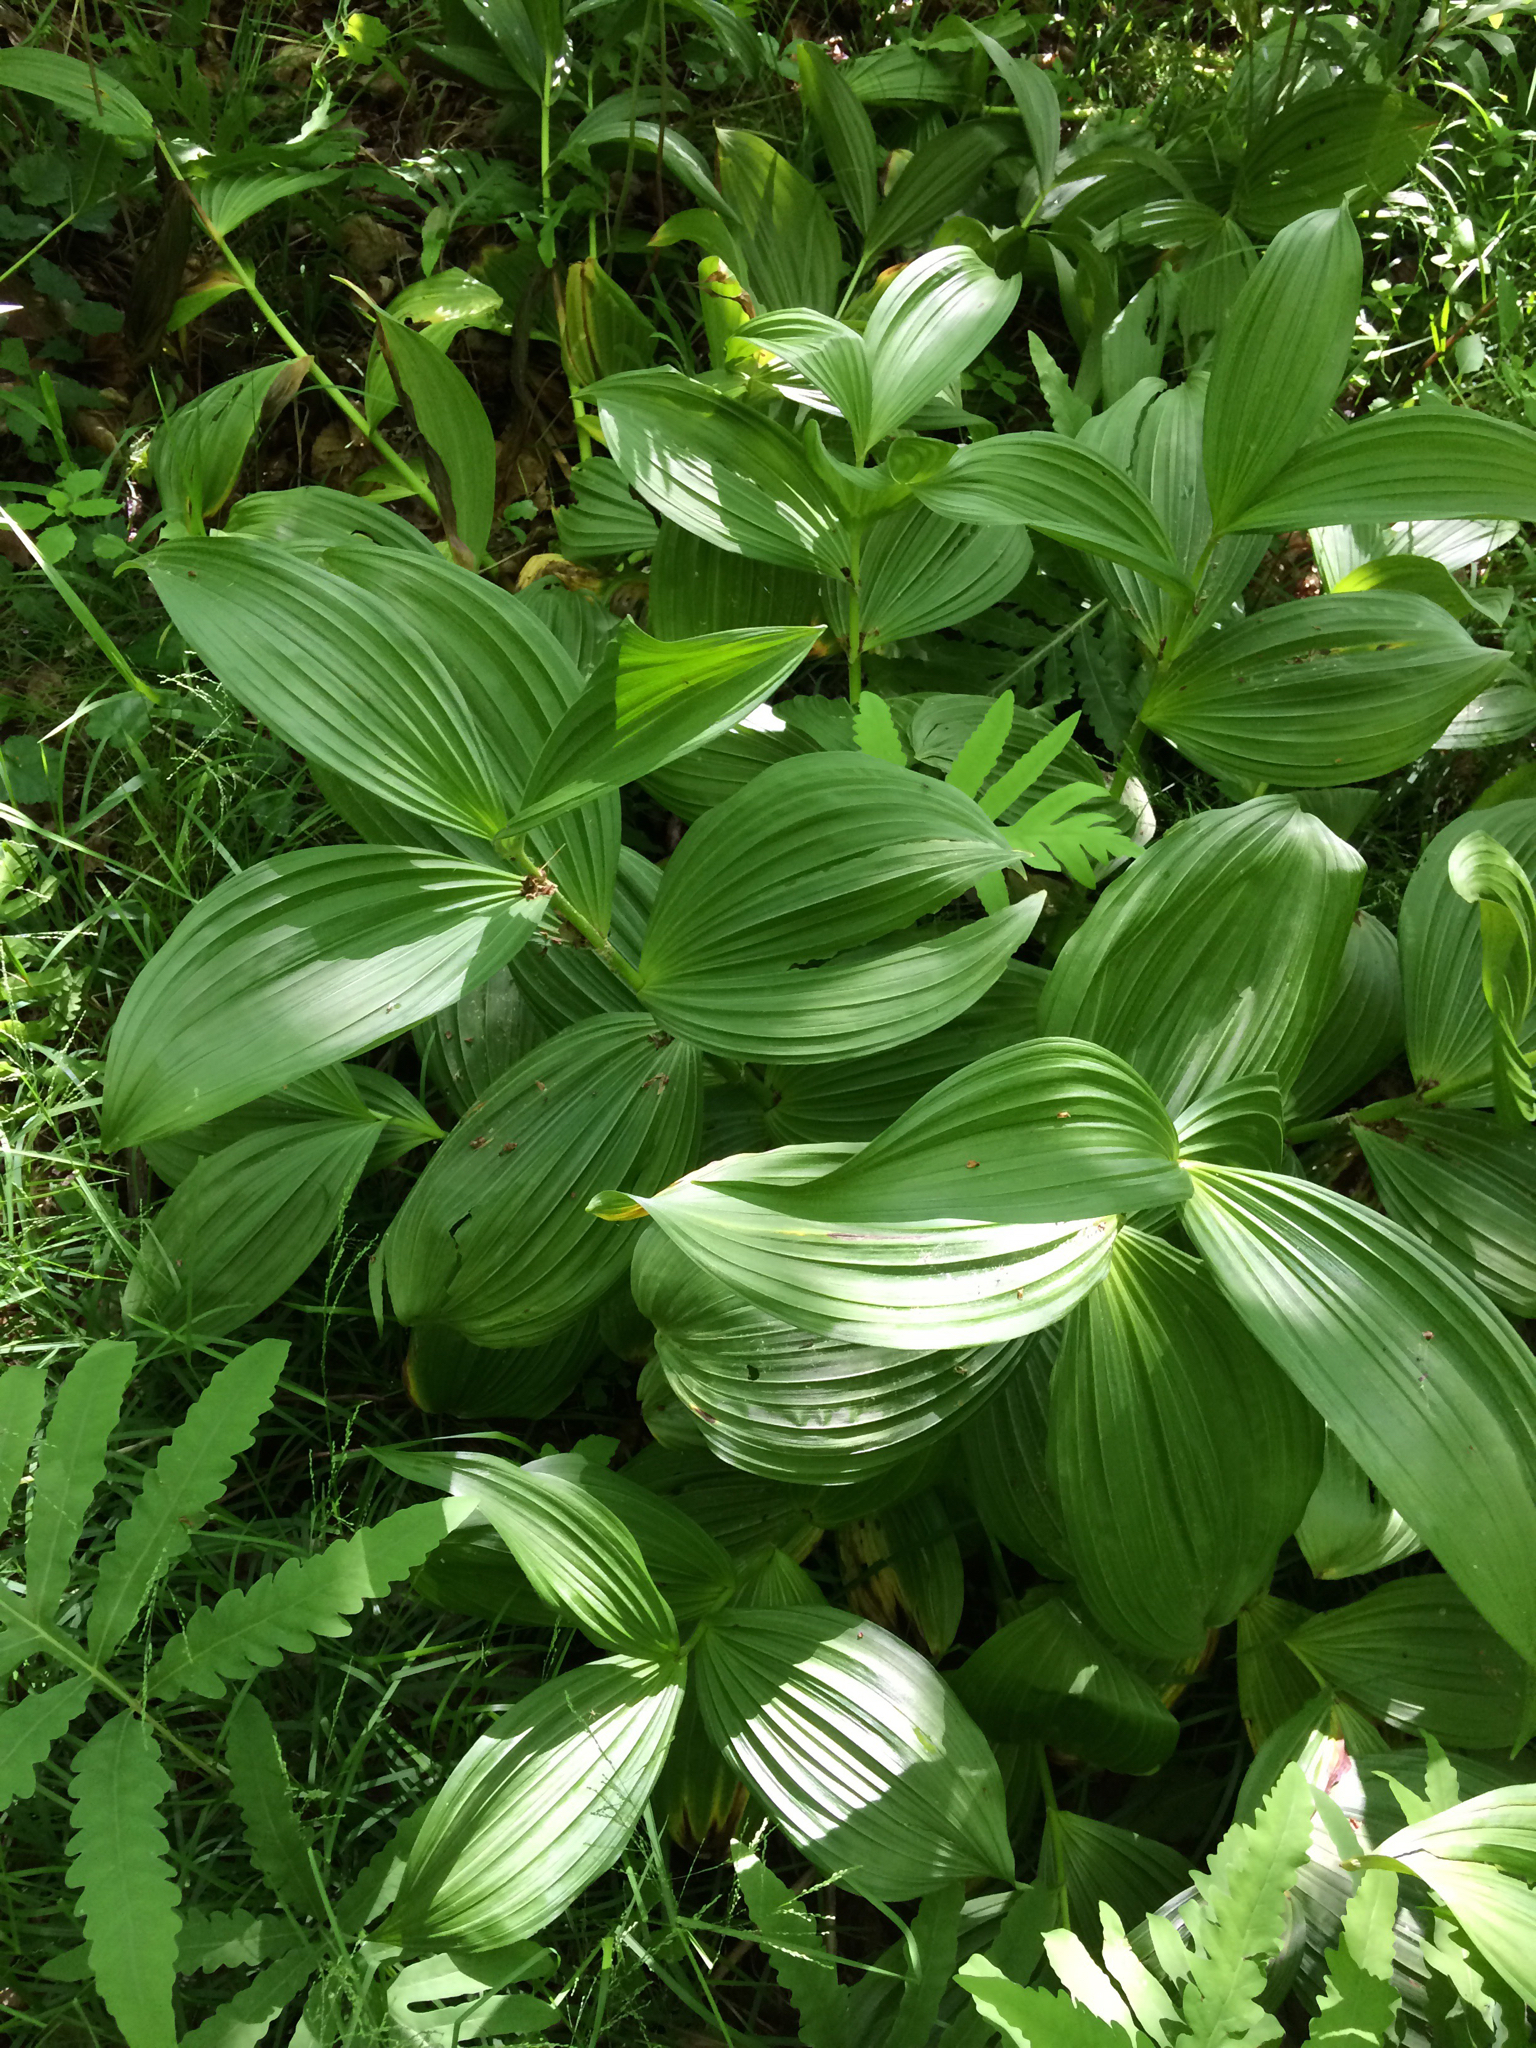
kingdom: Plantae
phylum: Tracheophyta
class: Liliopsida
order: Liliales
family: Melanthiaceae
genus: Veratrum
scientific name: Veratrum viride
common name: American false hellebore
